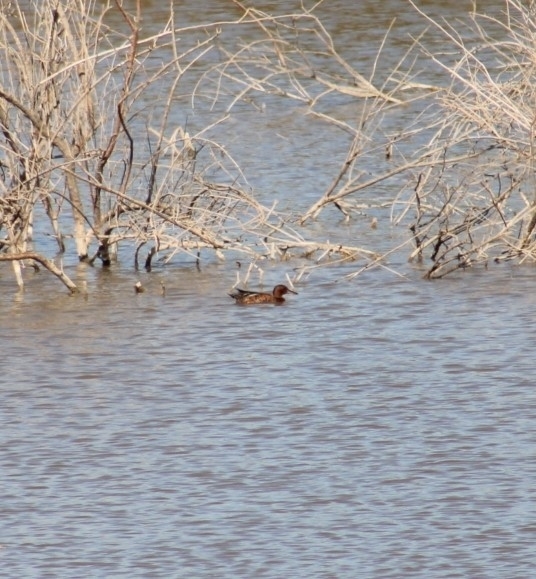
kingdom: Animalia
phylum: Chordata
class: Aves
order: Anseriformes
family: Anatidae
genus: Spatula
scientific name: Spatula cyanoptera
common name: Cinnamon teal
